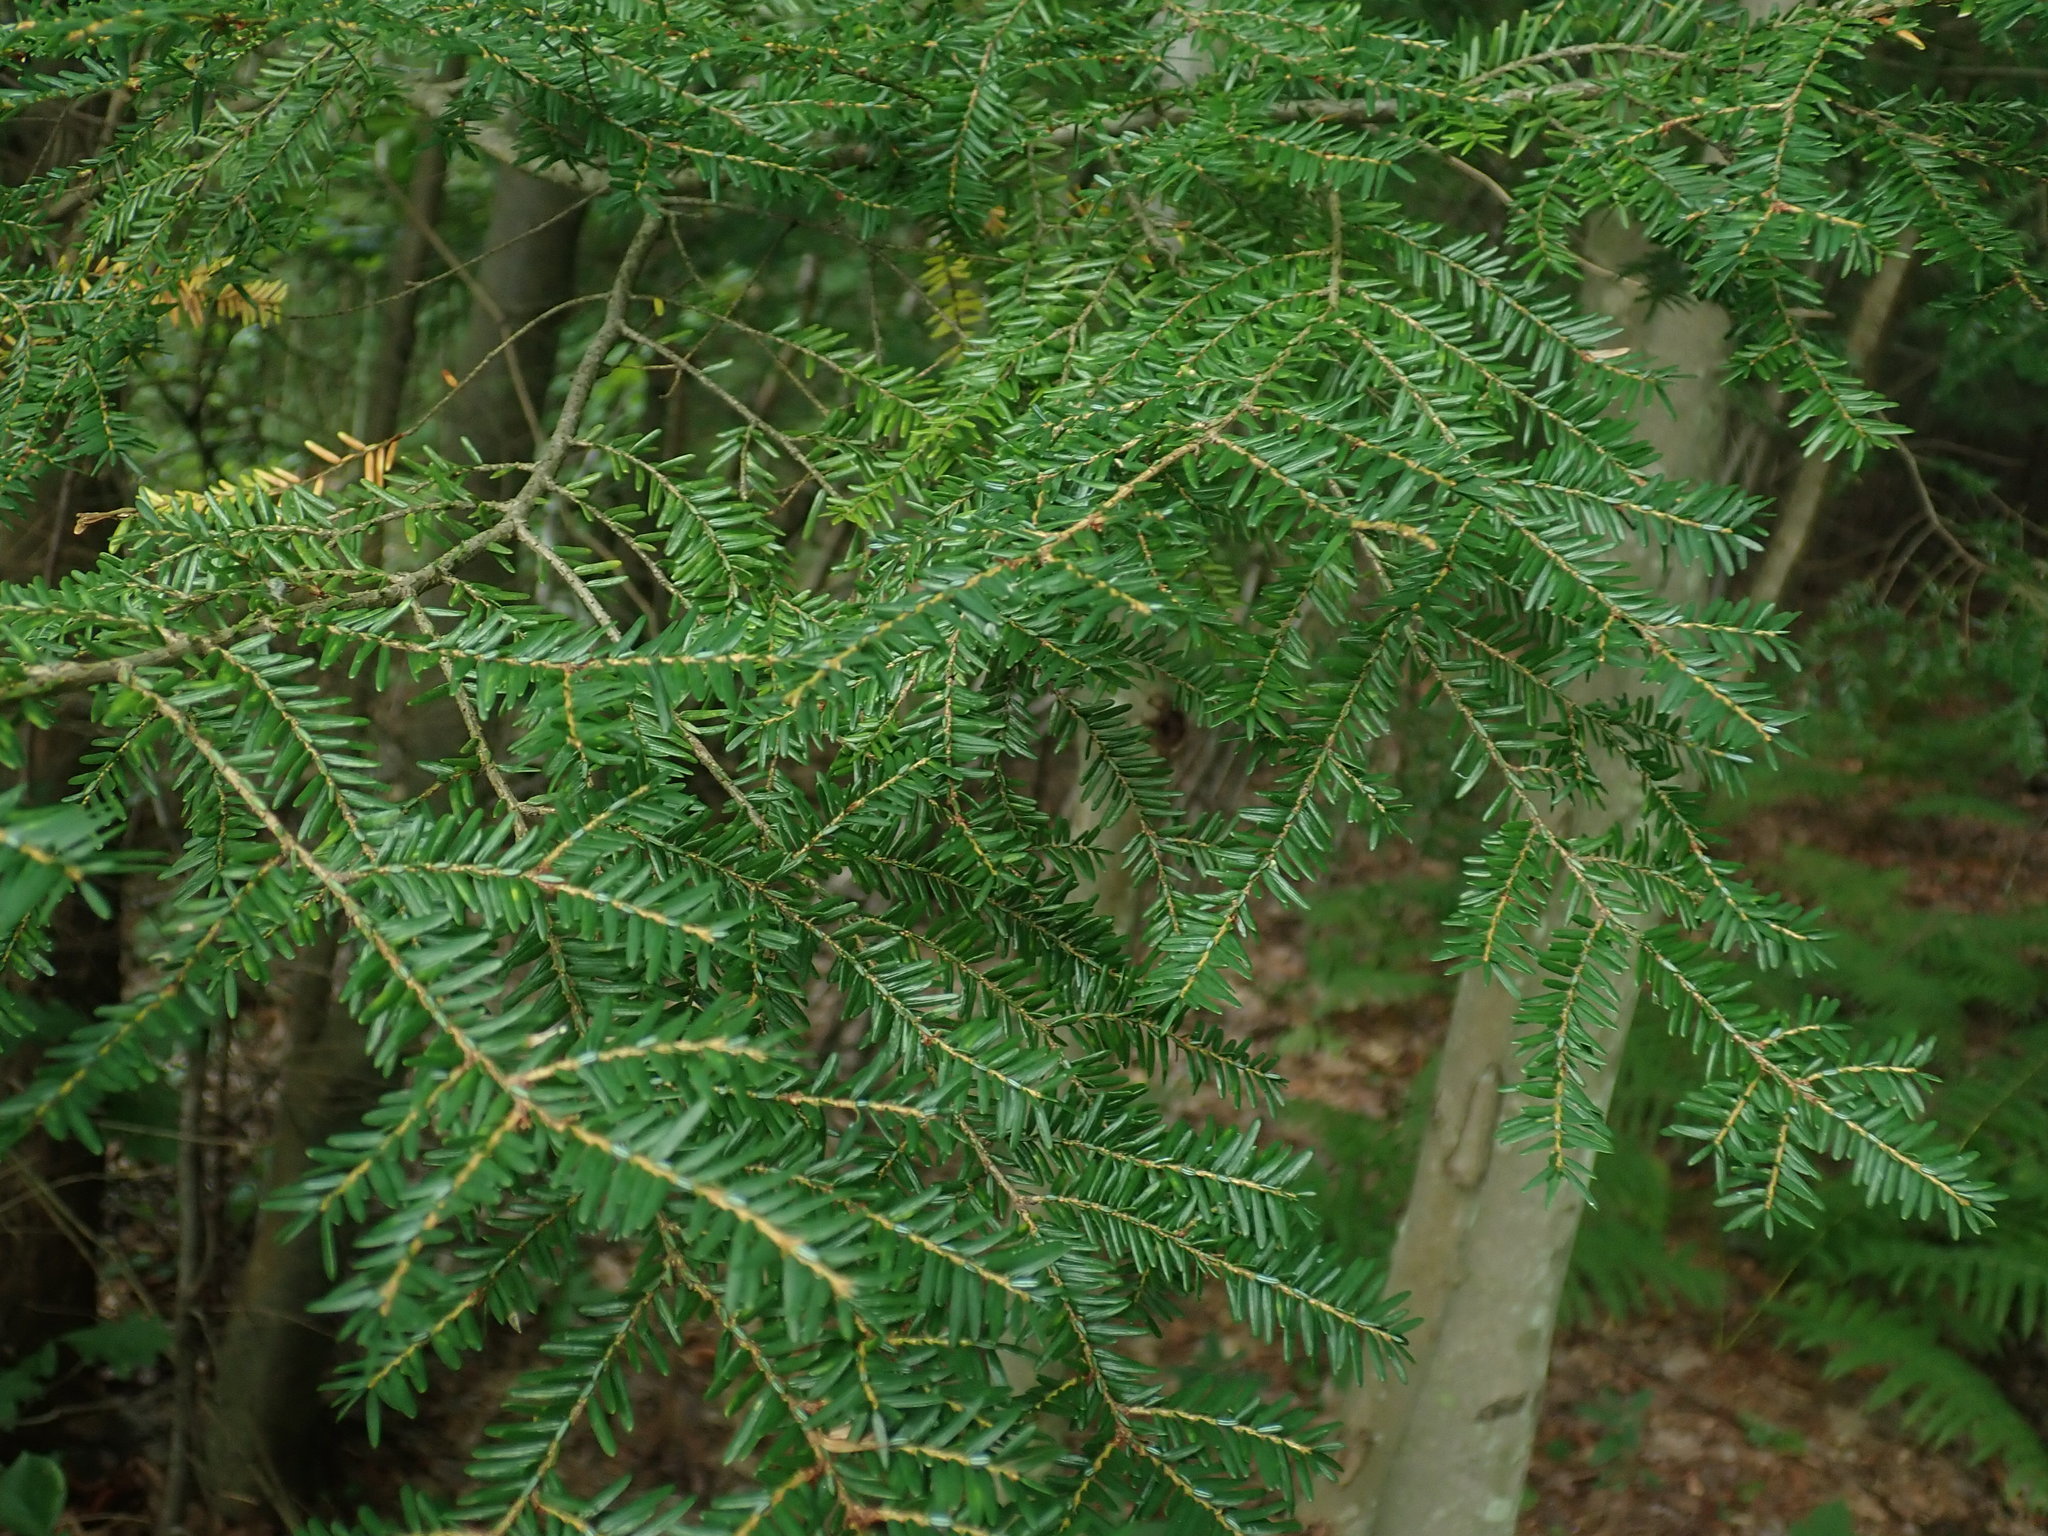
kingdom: Plantae
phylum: Tracheophyta
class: Pinopsida
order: Pinales
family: Pinaceae
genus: Tsuga
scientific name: Tsuga canadensis
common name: Eastern hemlock
